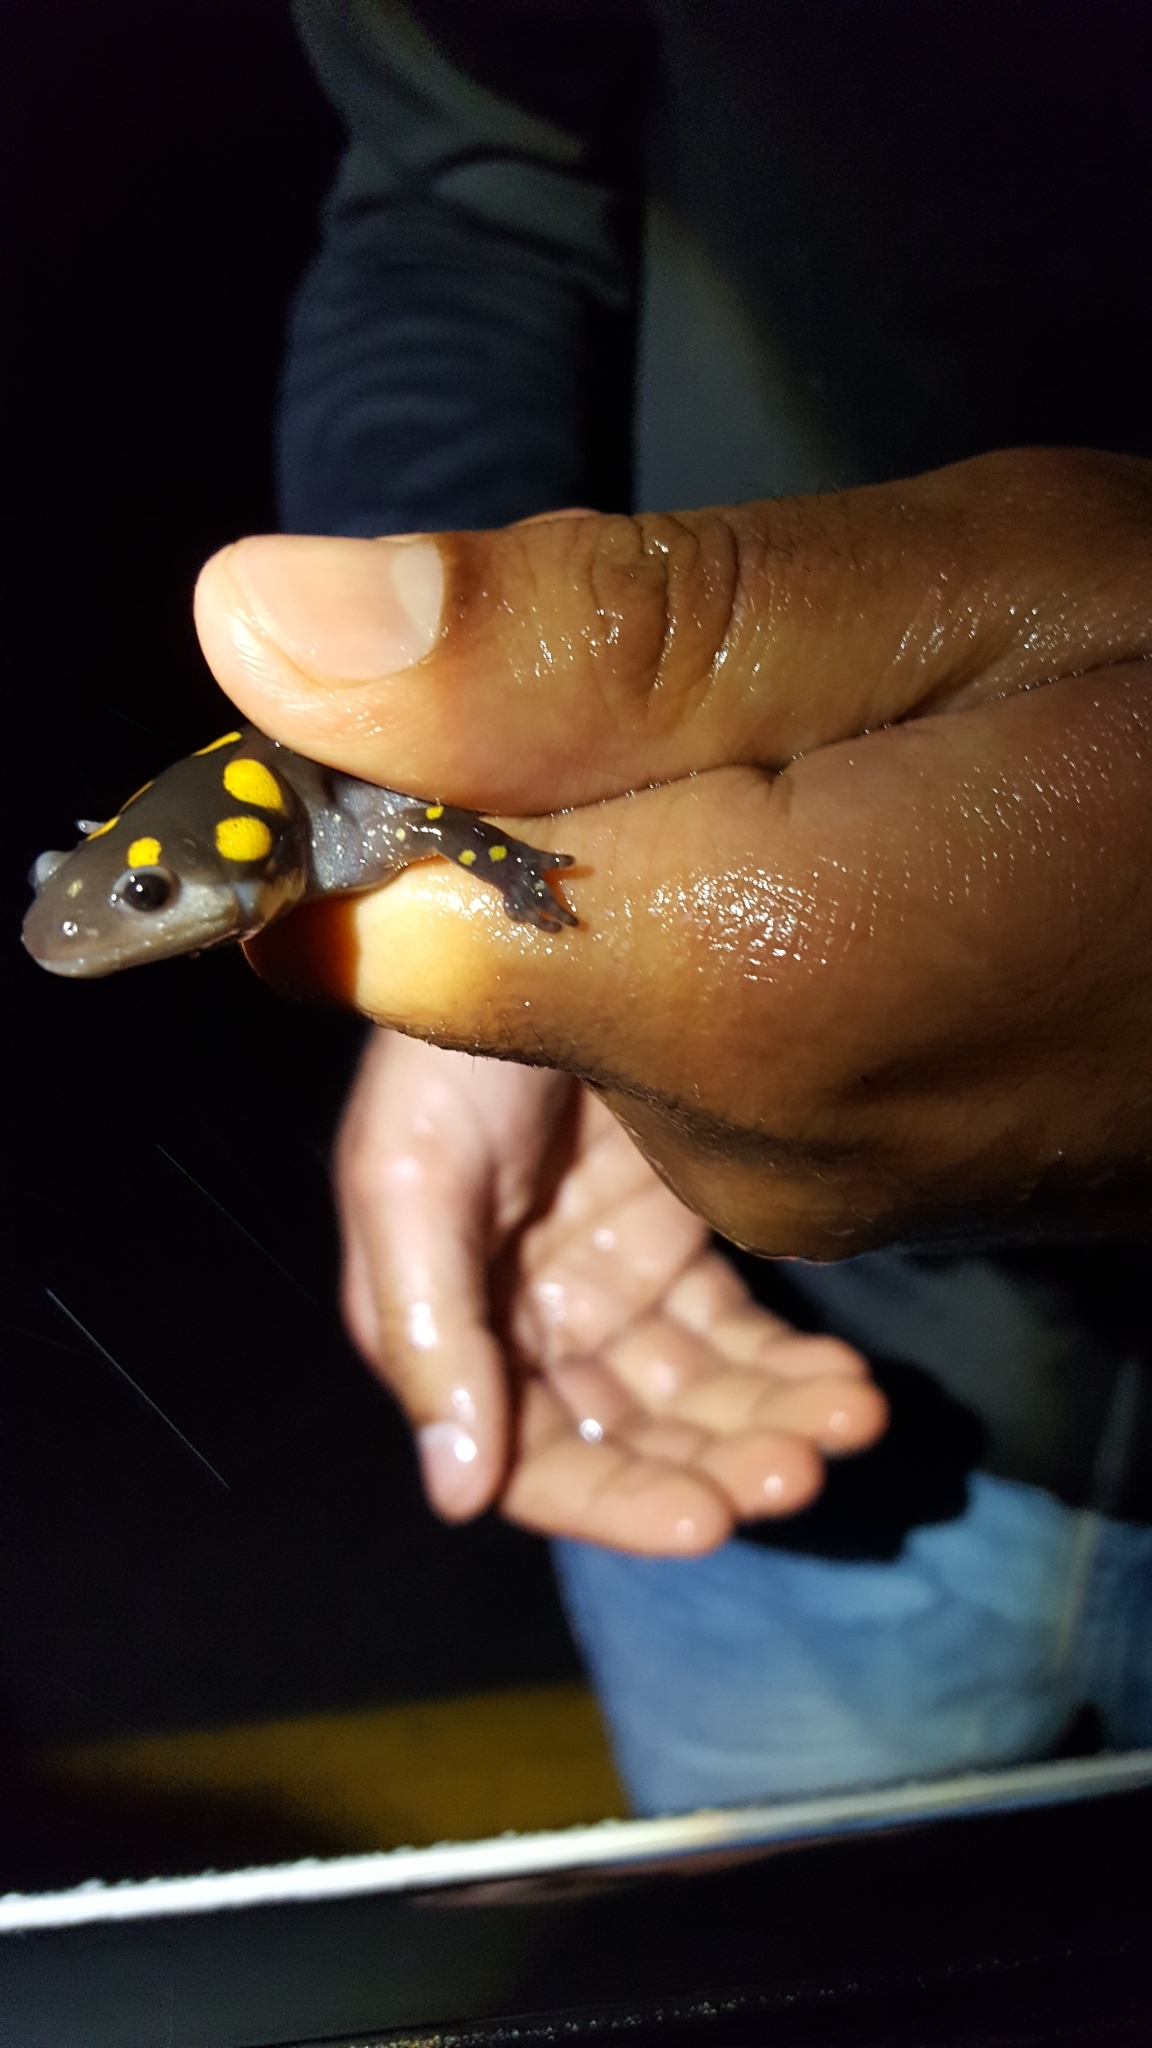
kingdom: Animalia
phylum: Chordata
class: Amphibia
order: Caudata
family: Ambystomatidae
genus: Ambystoma
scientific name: Ambystoma maculatum
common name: Spotted salamander
